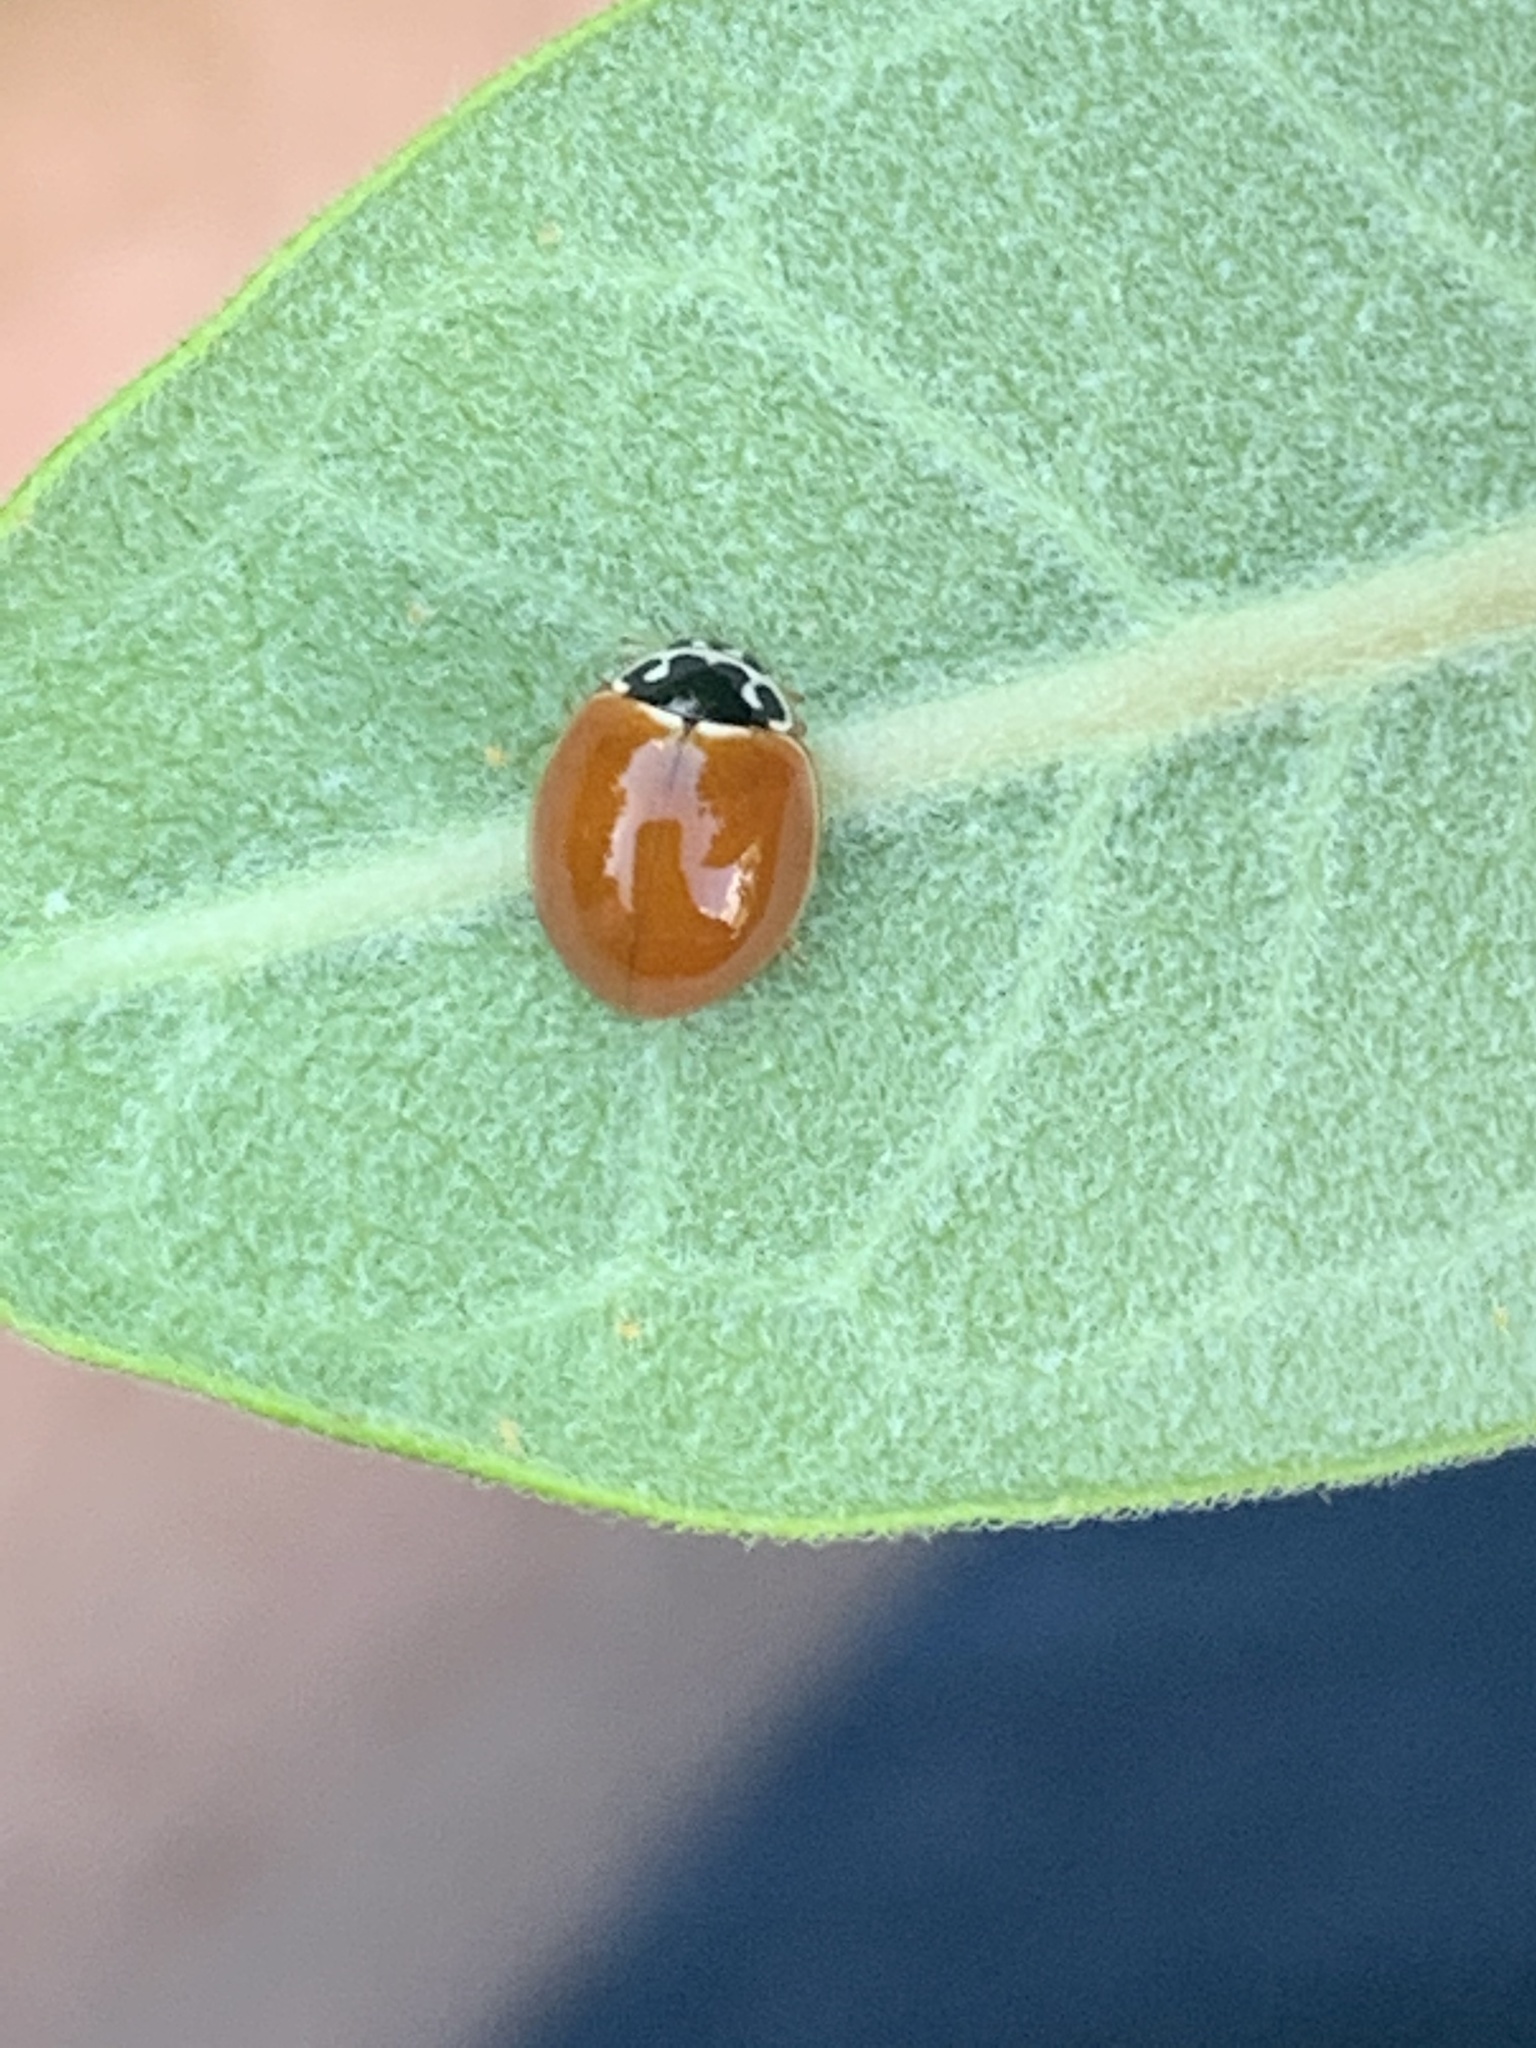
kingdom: Animalia
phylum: Arthropoda
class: Insecta
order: Coleoptera
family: Coccinellidae
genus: Cycloneda
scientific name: Cycloneda munda
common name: Polished lady beetle
